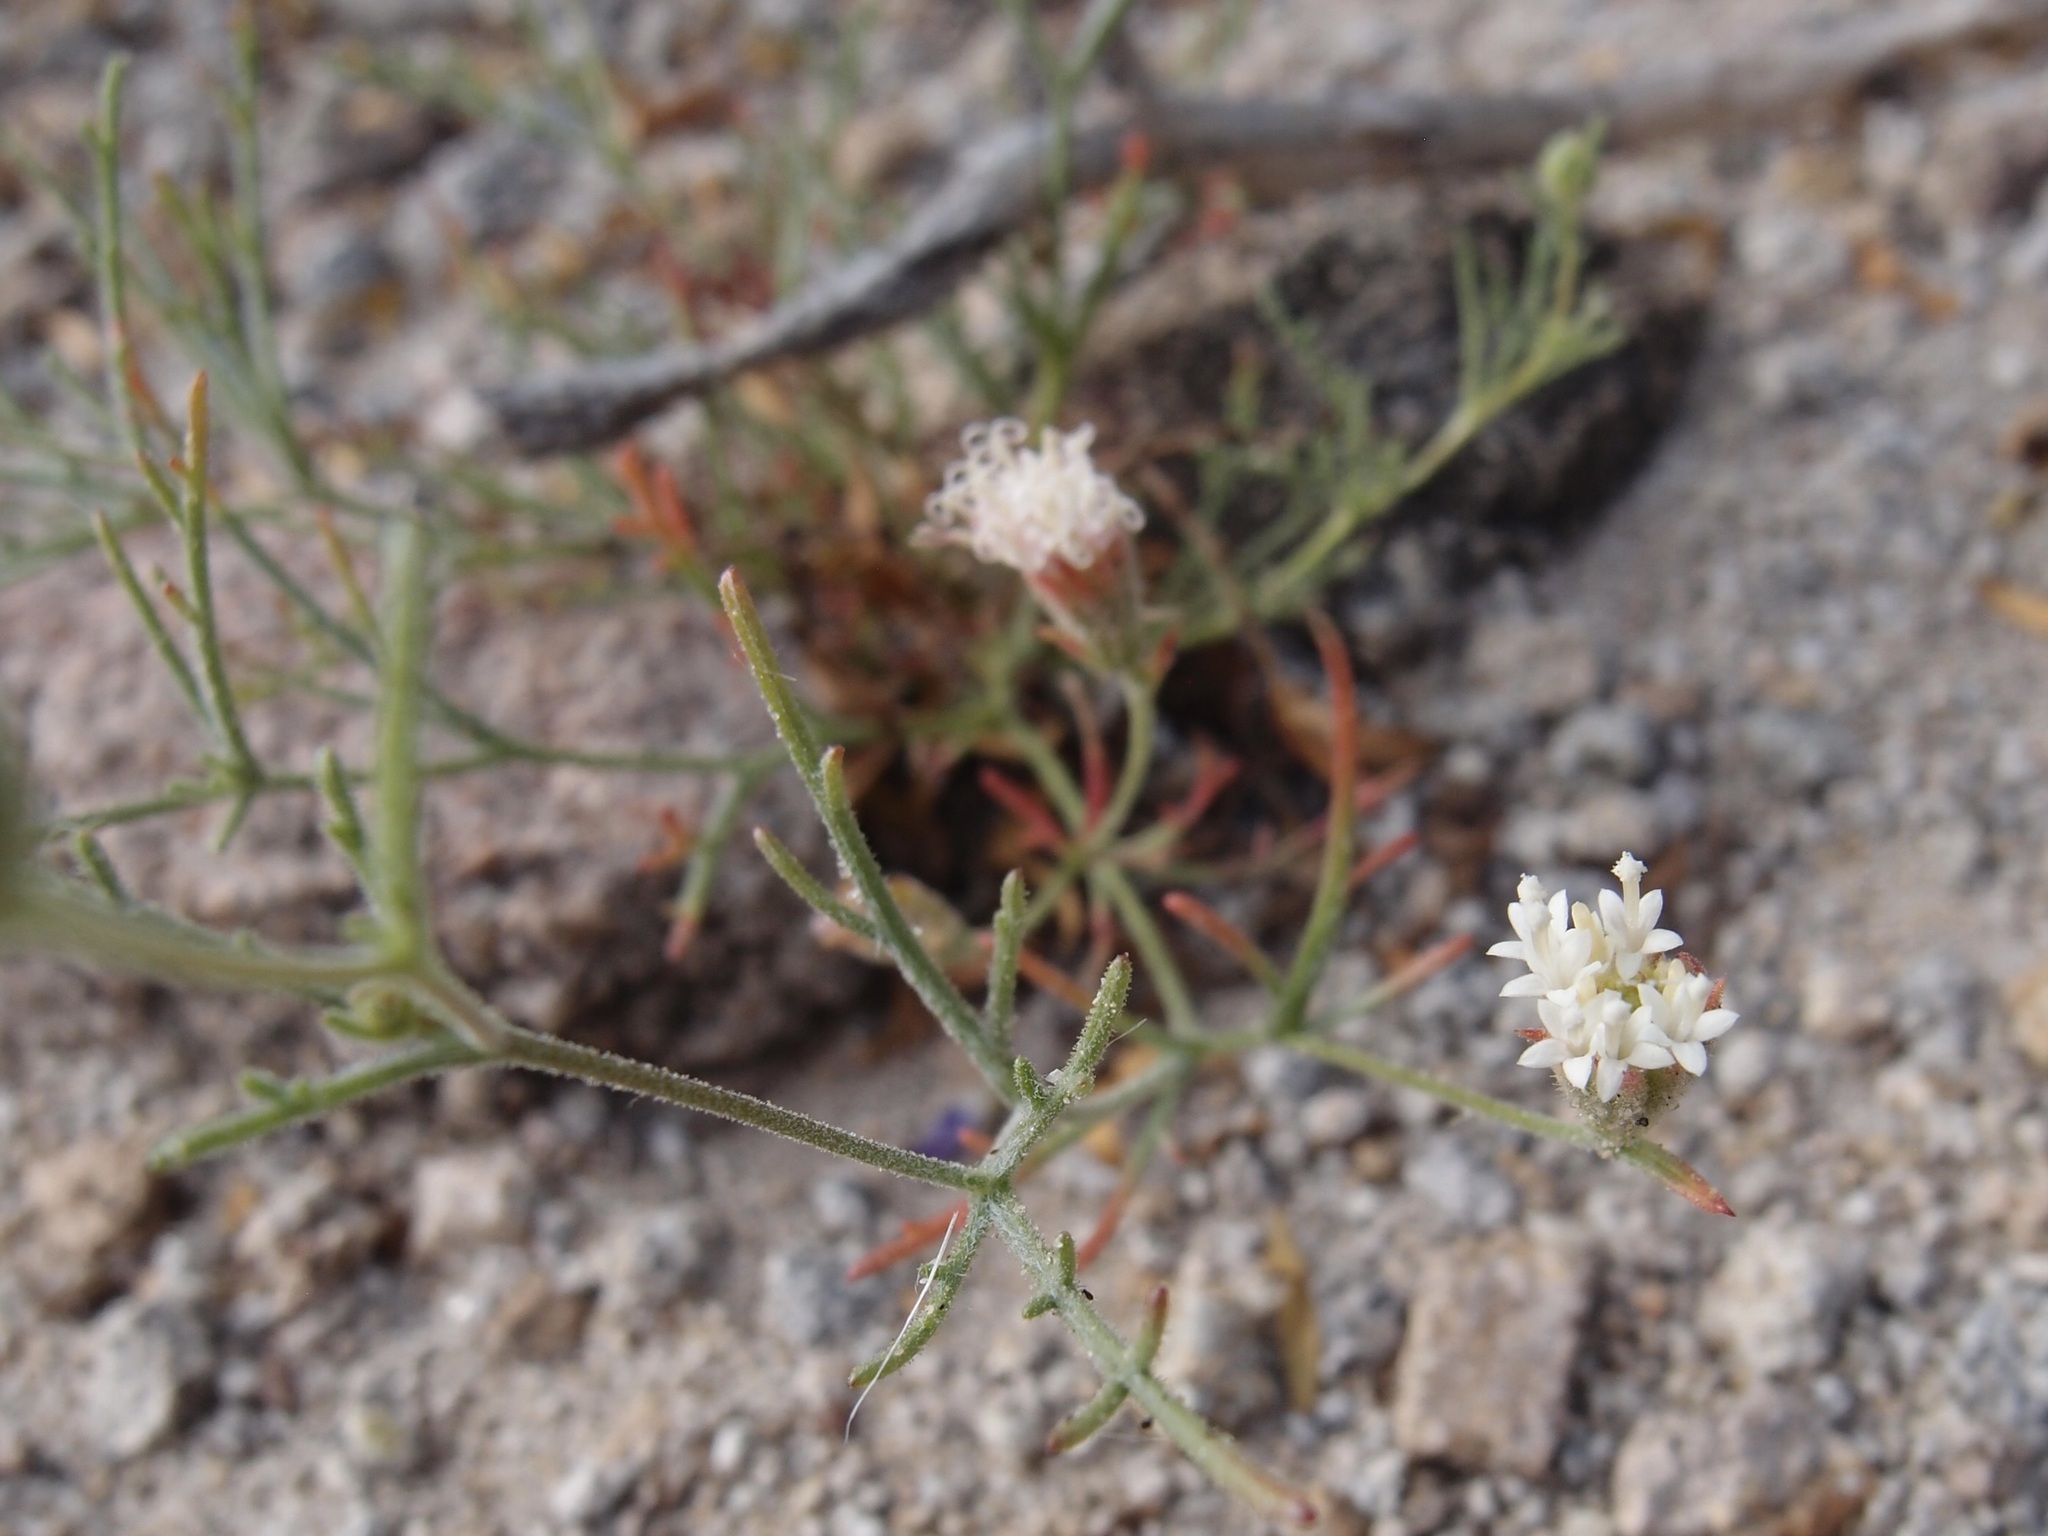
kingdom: Plantae
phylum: Tracheophyta
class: Magnoliopsida
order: Asterales
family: Asteraceae
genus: Chaenactis
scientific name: Chaenactis carphoclinia
